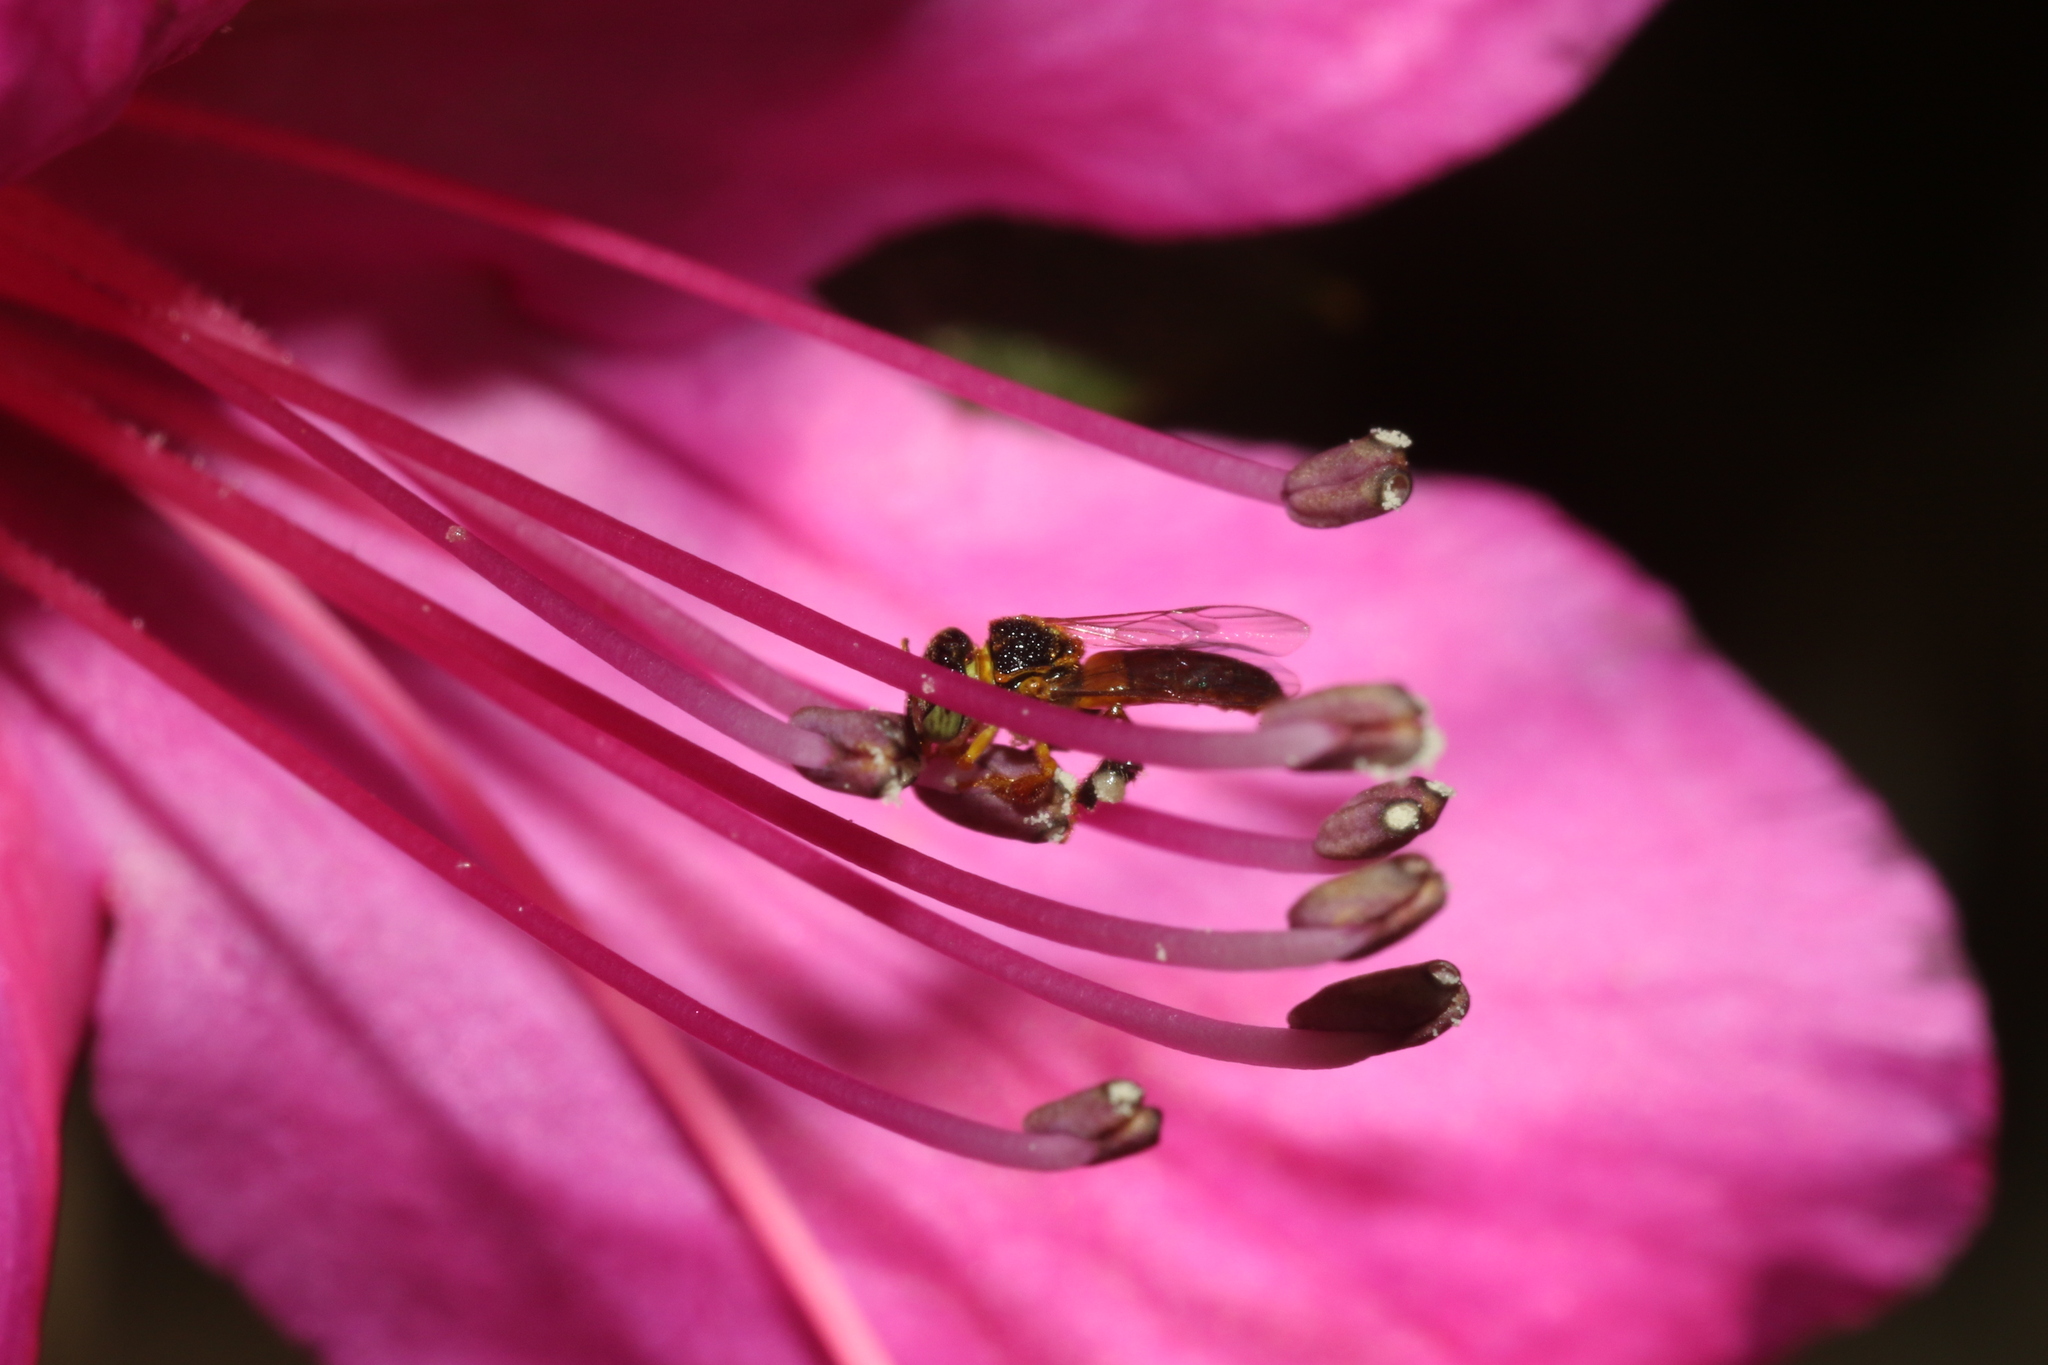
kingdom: Animalia
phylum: Arthropoda
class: Insecta
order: Hymenoptera
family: Apidae
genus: Tetragonisca
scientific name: Tetragonisca angustula
